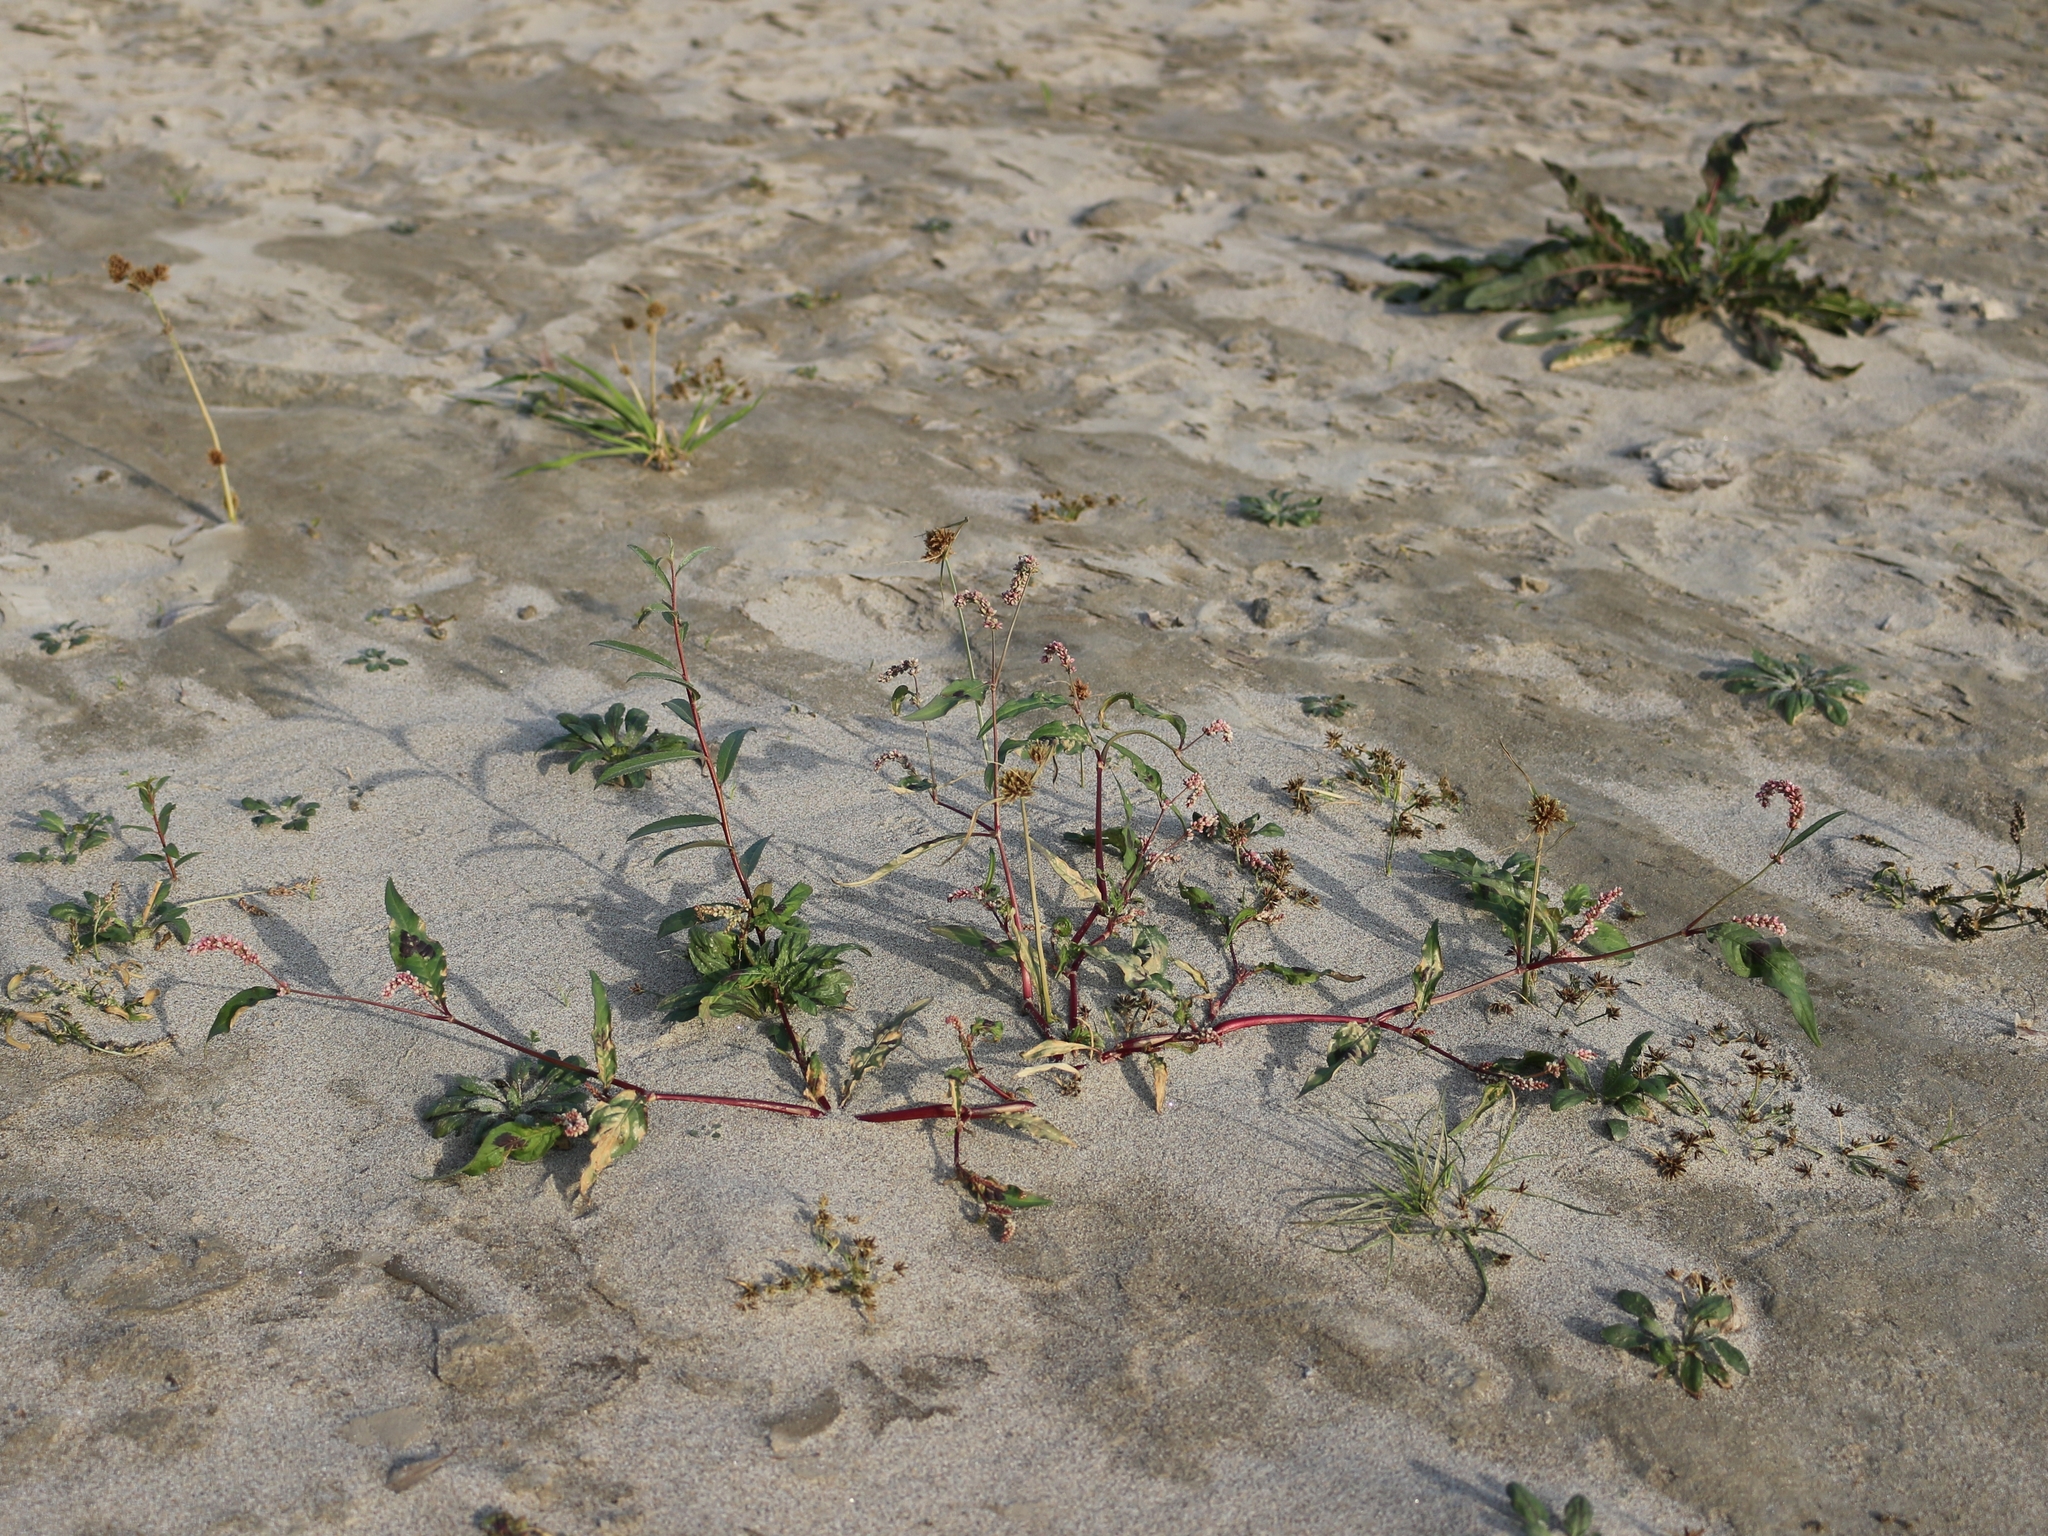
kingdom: Plantae
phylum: Tracheophyta
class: Magnoliopsida
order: Caryophyllales
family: Polygonaceae
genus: Persicaria
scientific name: Persicaria maculosa
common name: Redshank
